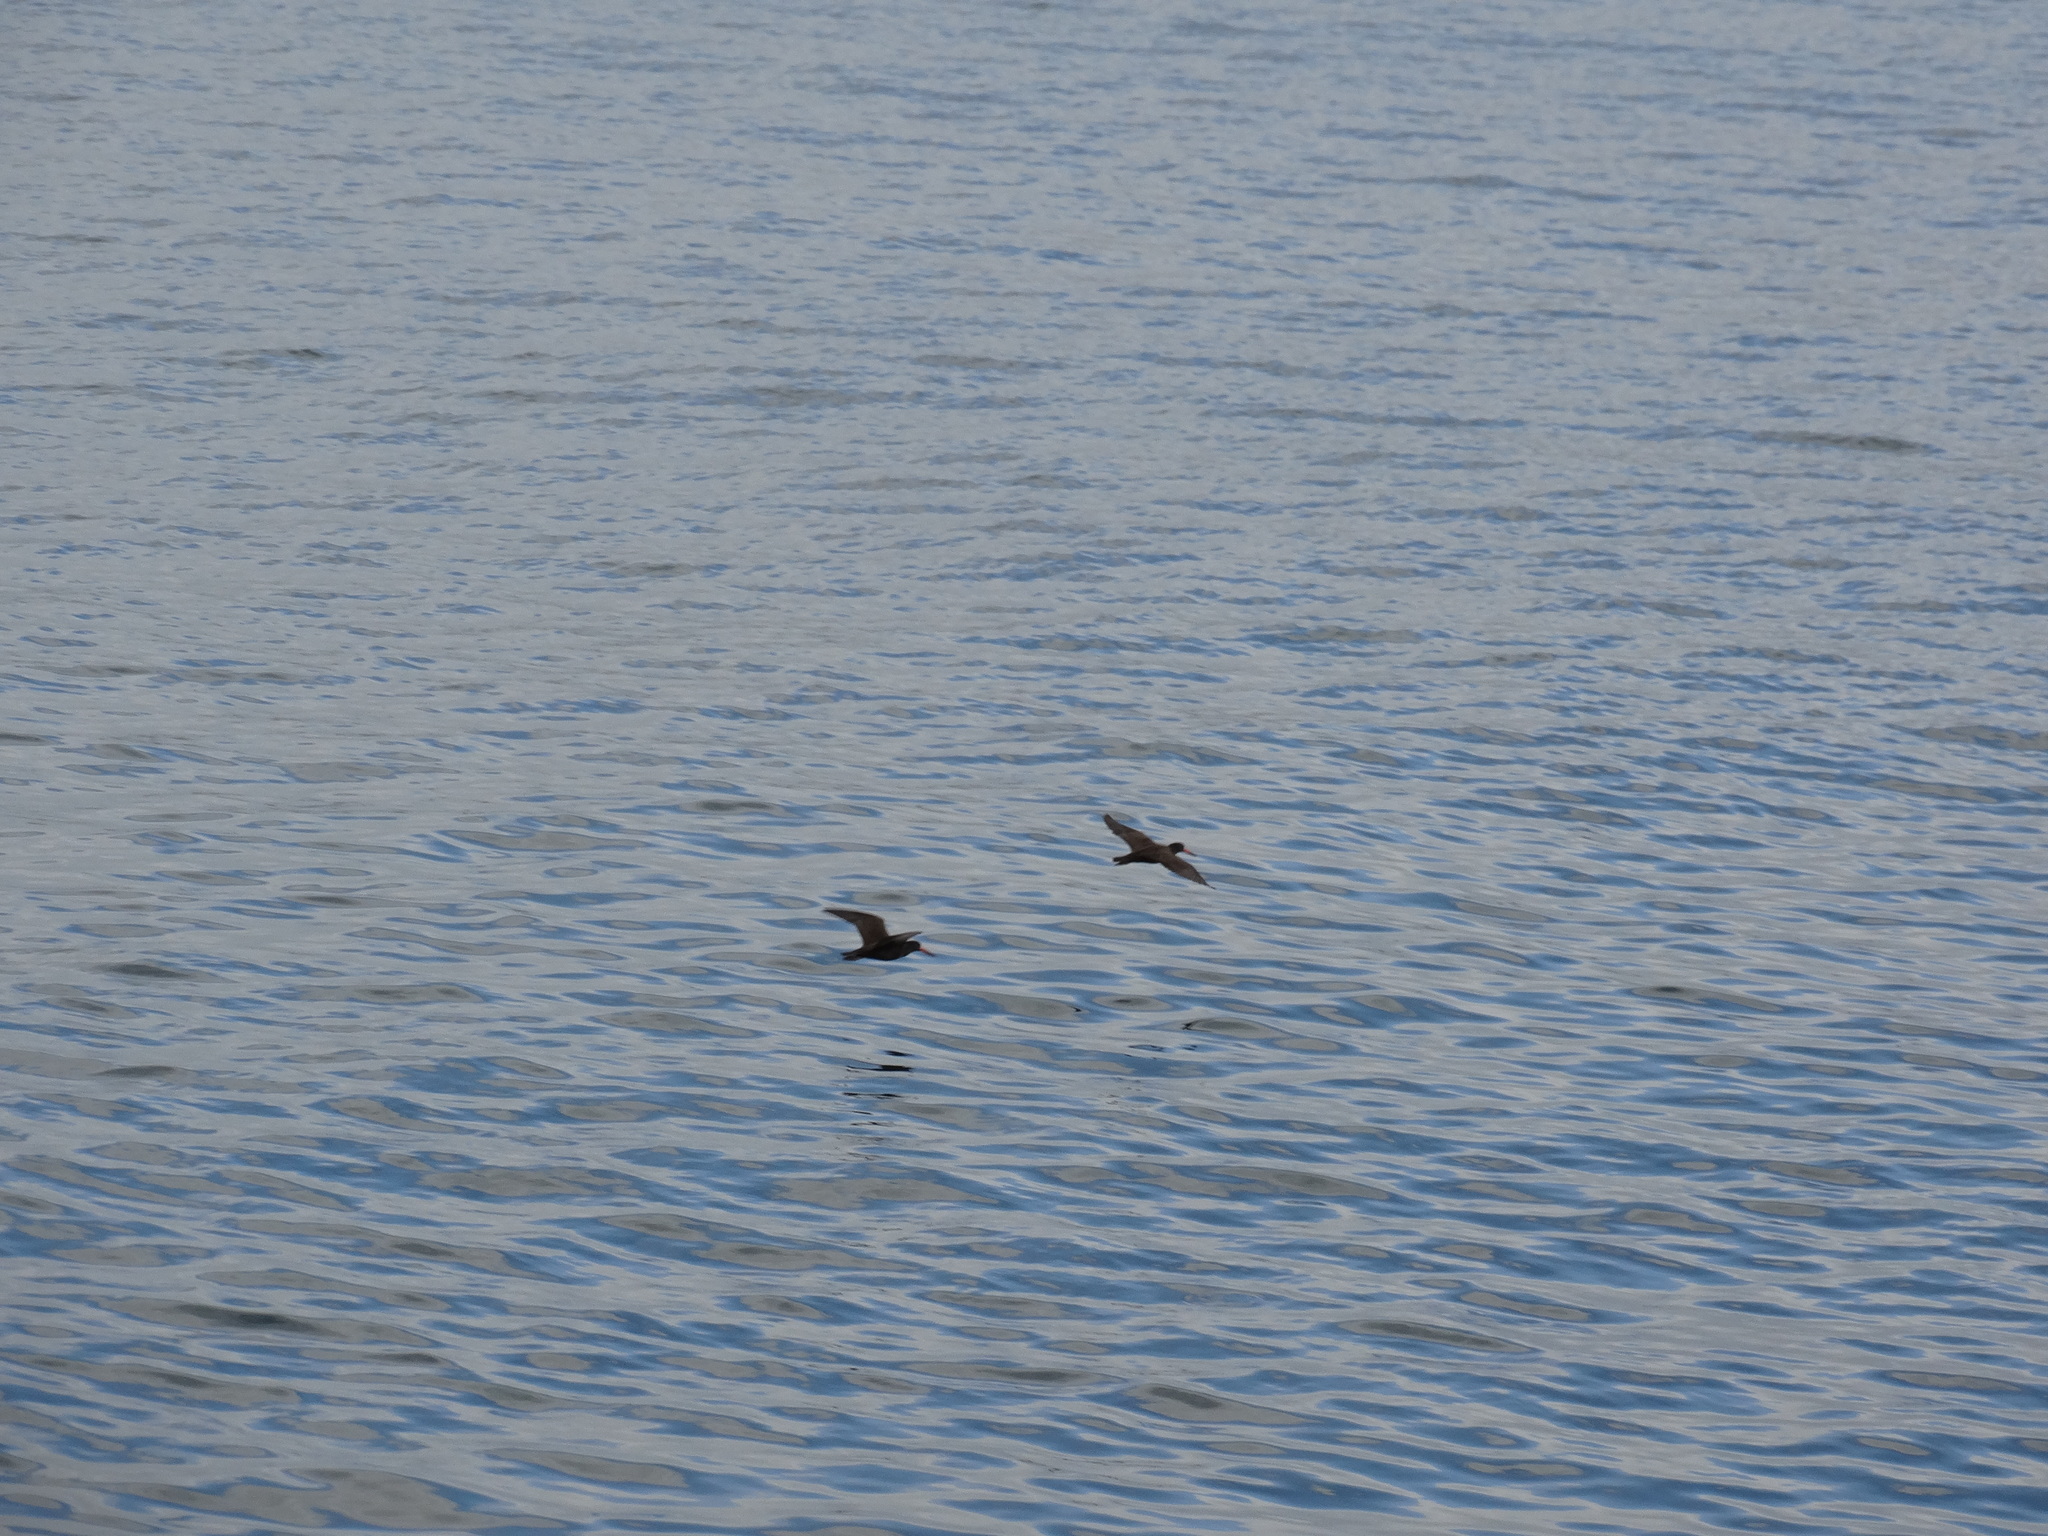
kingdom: Animalia
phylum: Chordata
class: Aves
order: Charadriiformes
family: Haematopodidae
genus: Haematopus
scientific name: Haematopus bachmani
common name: Black oystercatcher
